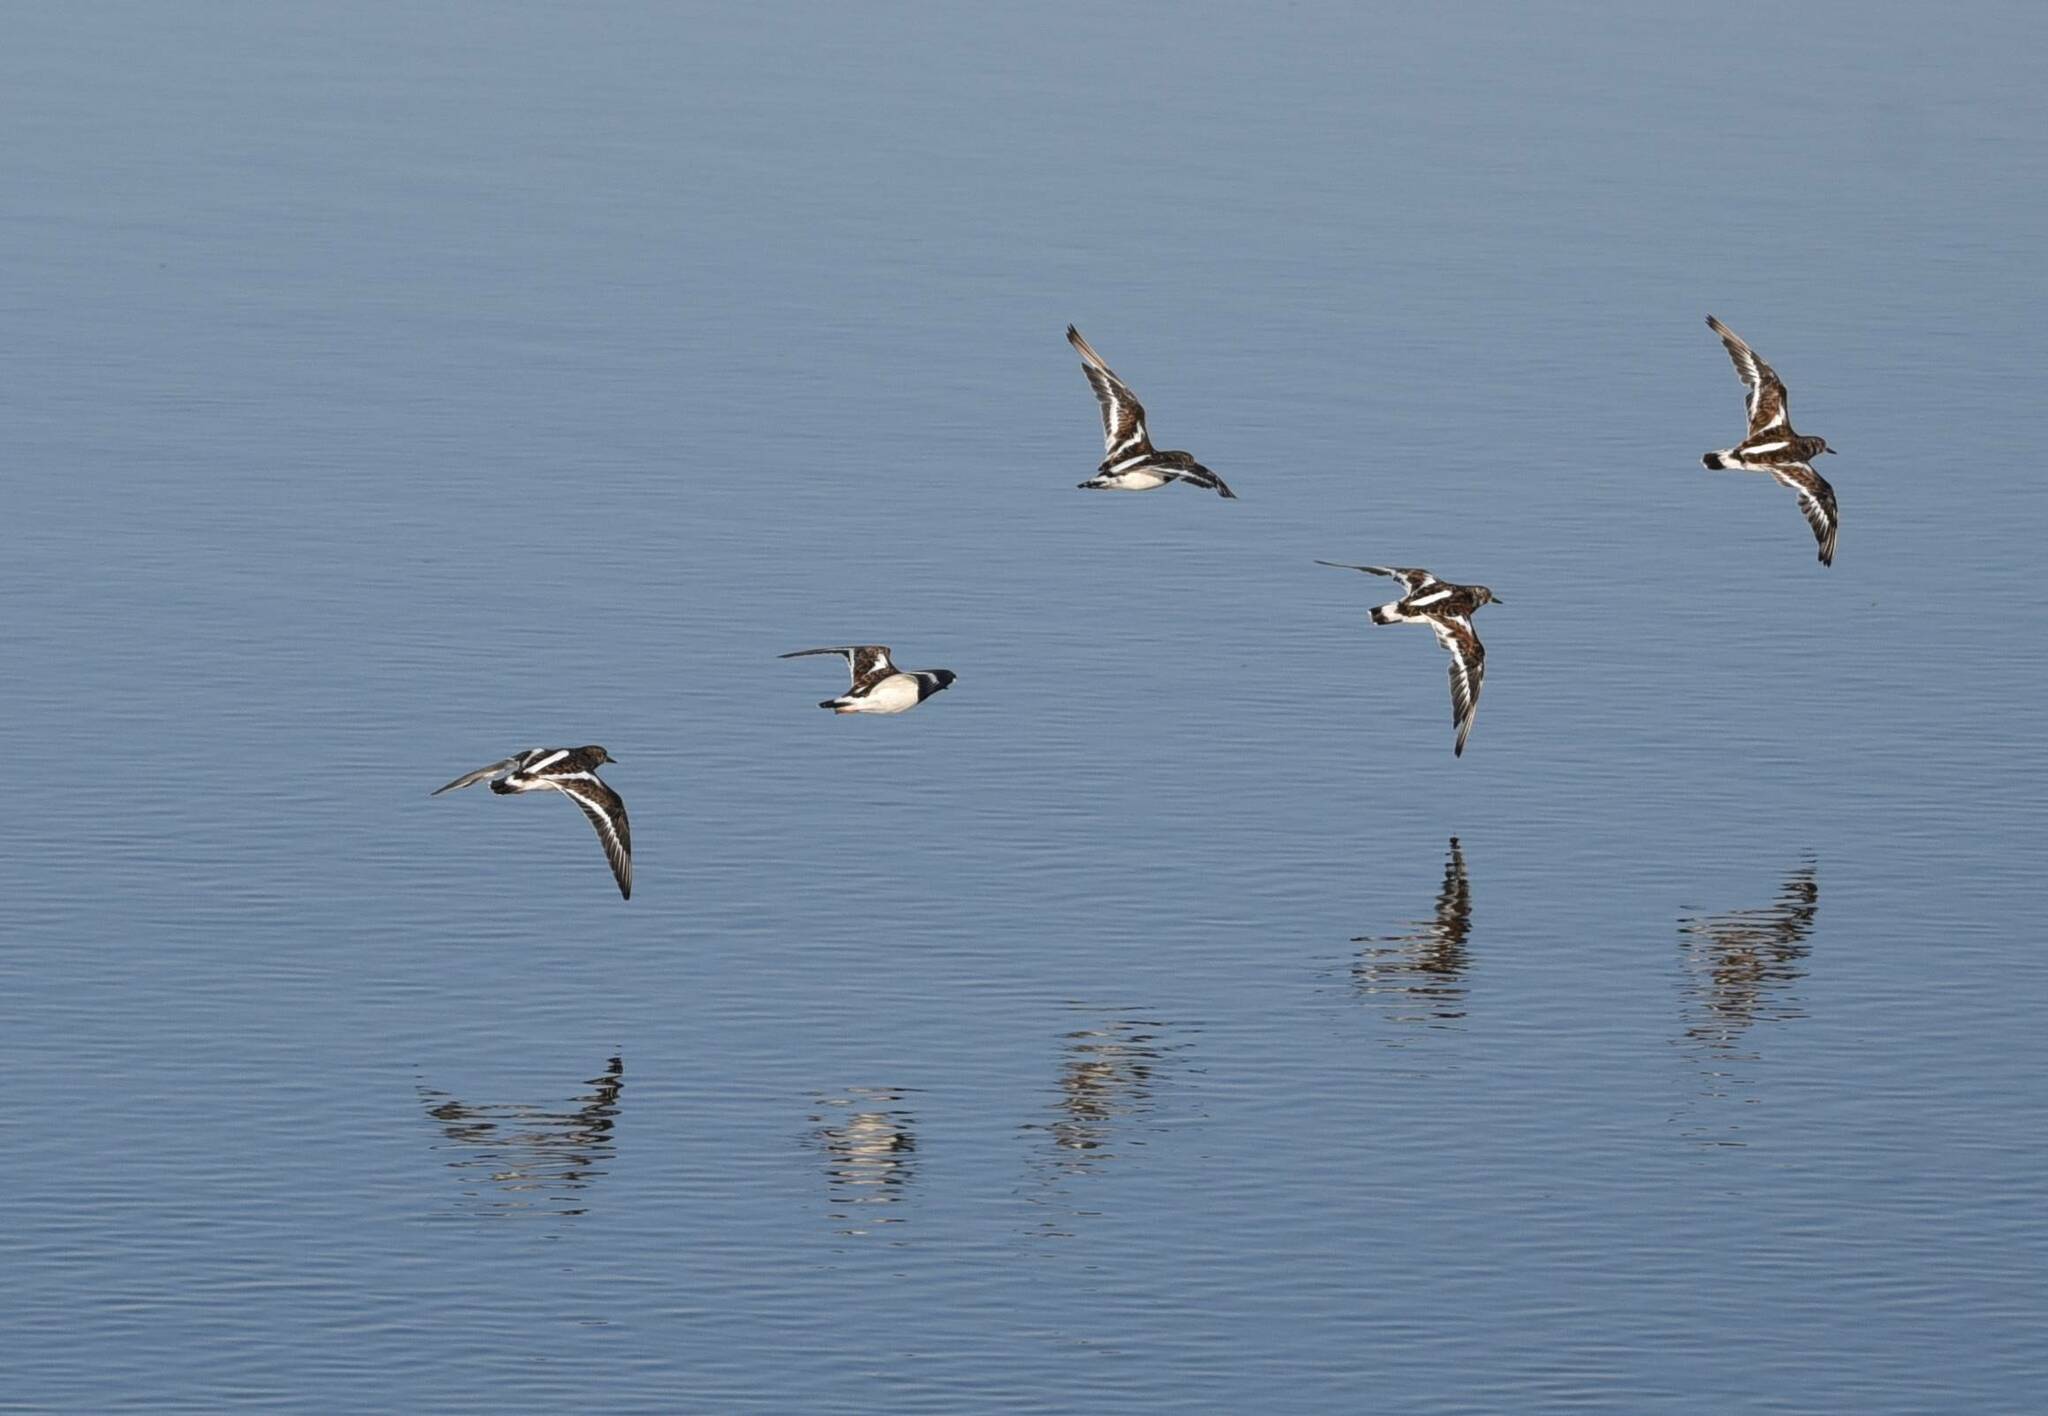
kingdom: Animalia
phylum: Chordata
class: Aves
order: Charadriiformes
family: Scolopacidae
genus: Arenaria
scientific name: Arenaria interpres
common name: Ruddy turnstone
